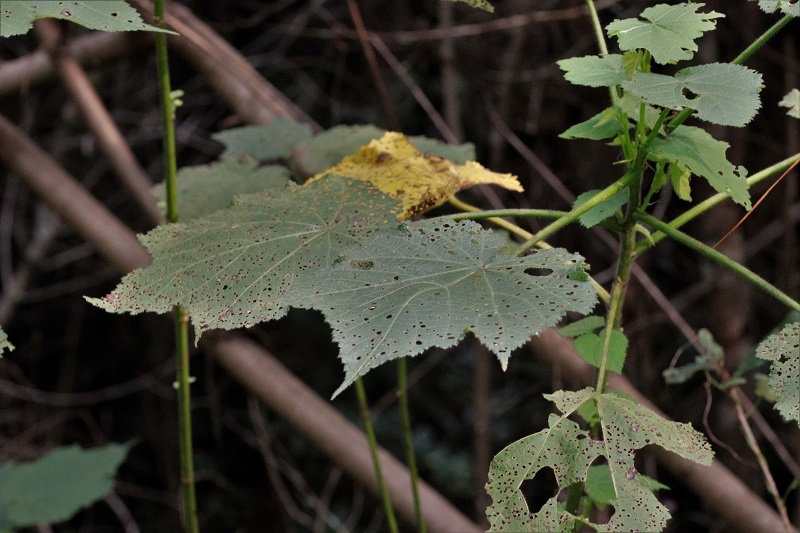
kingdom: Plantae
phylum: Tracheophyta
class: Magnoliopsida
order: Malvales
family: Malvaceae
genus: Sparrmannia
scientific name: Sparrmannia africana
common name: African-hemp
